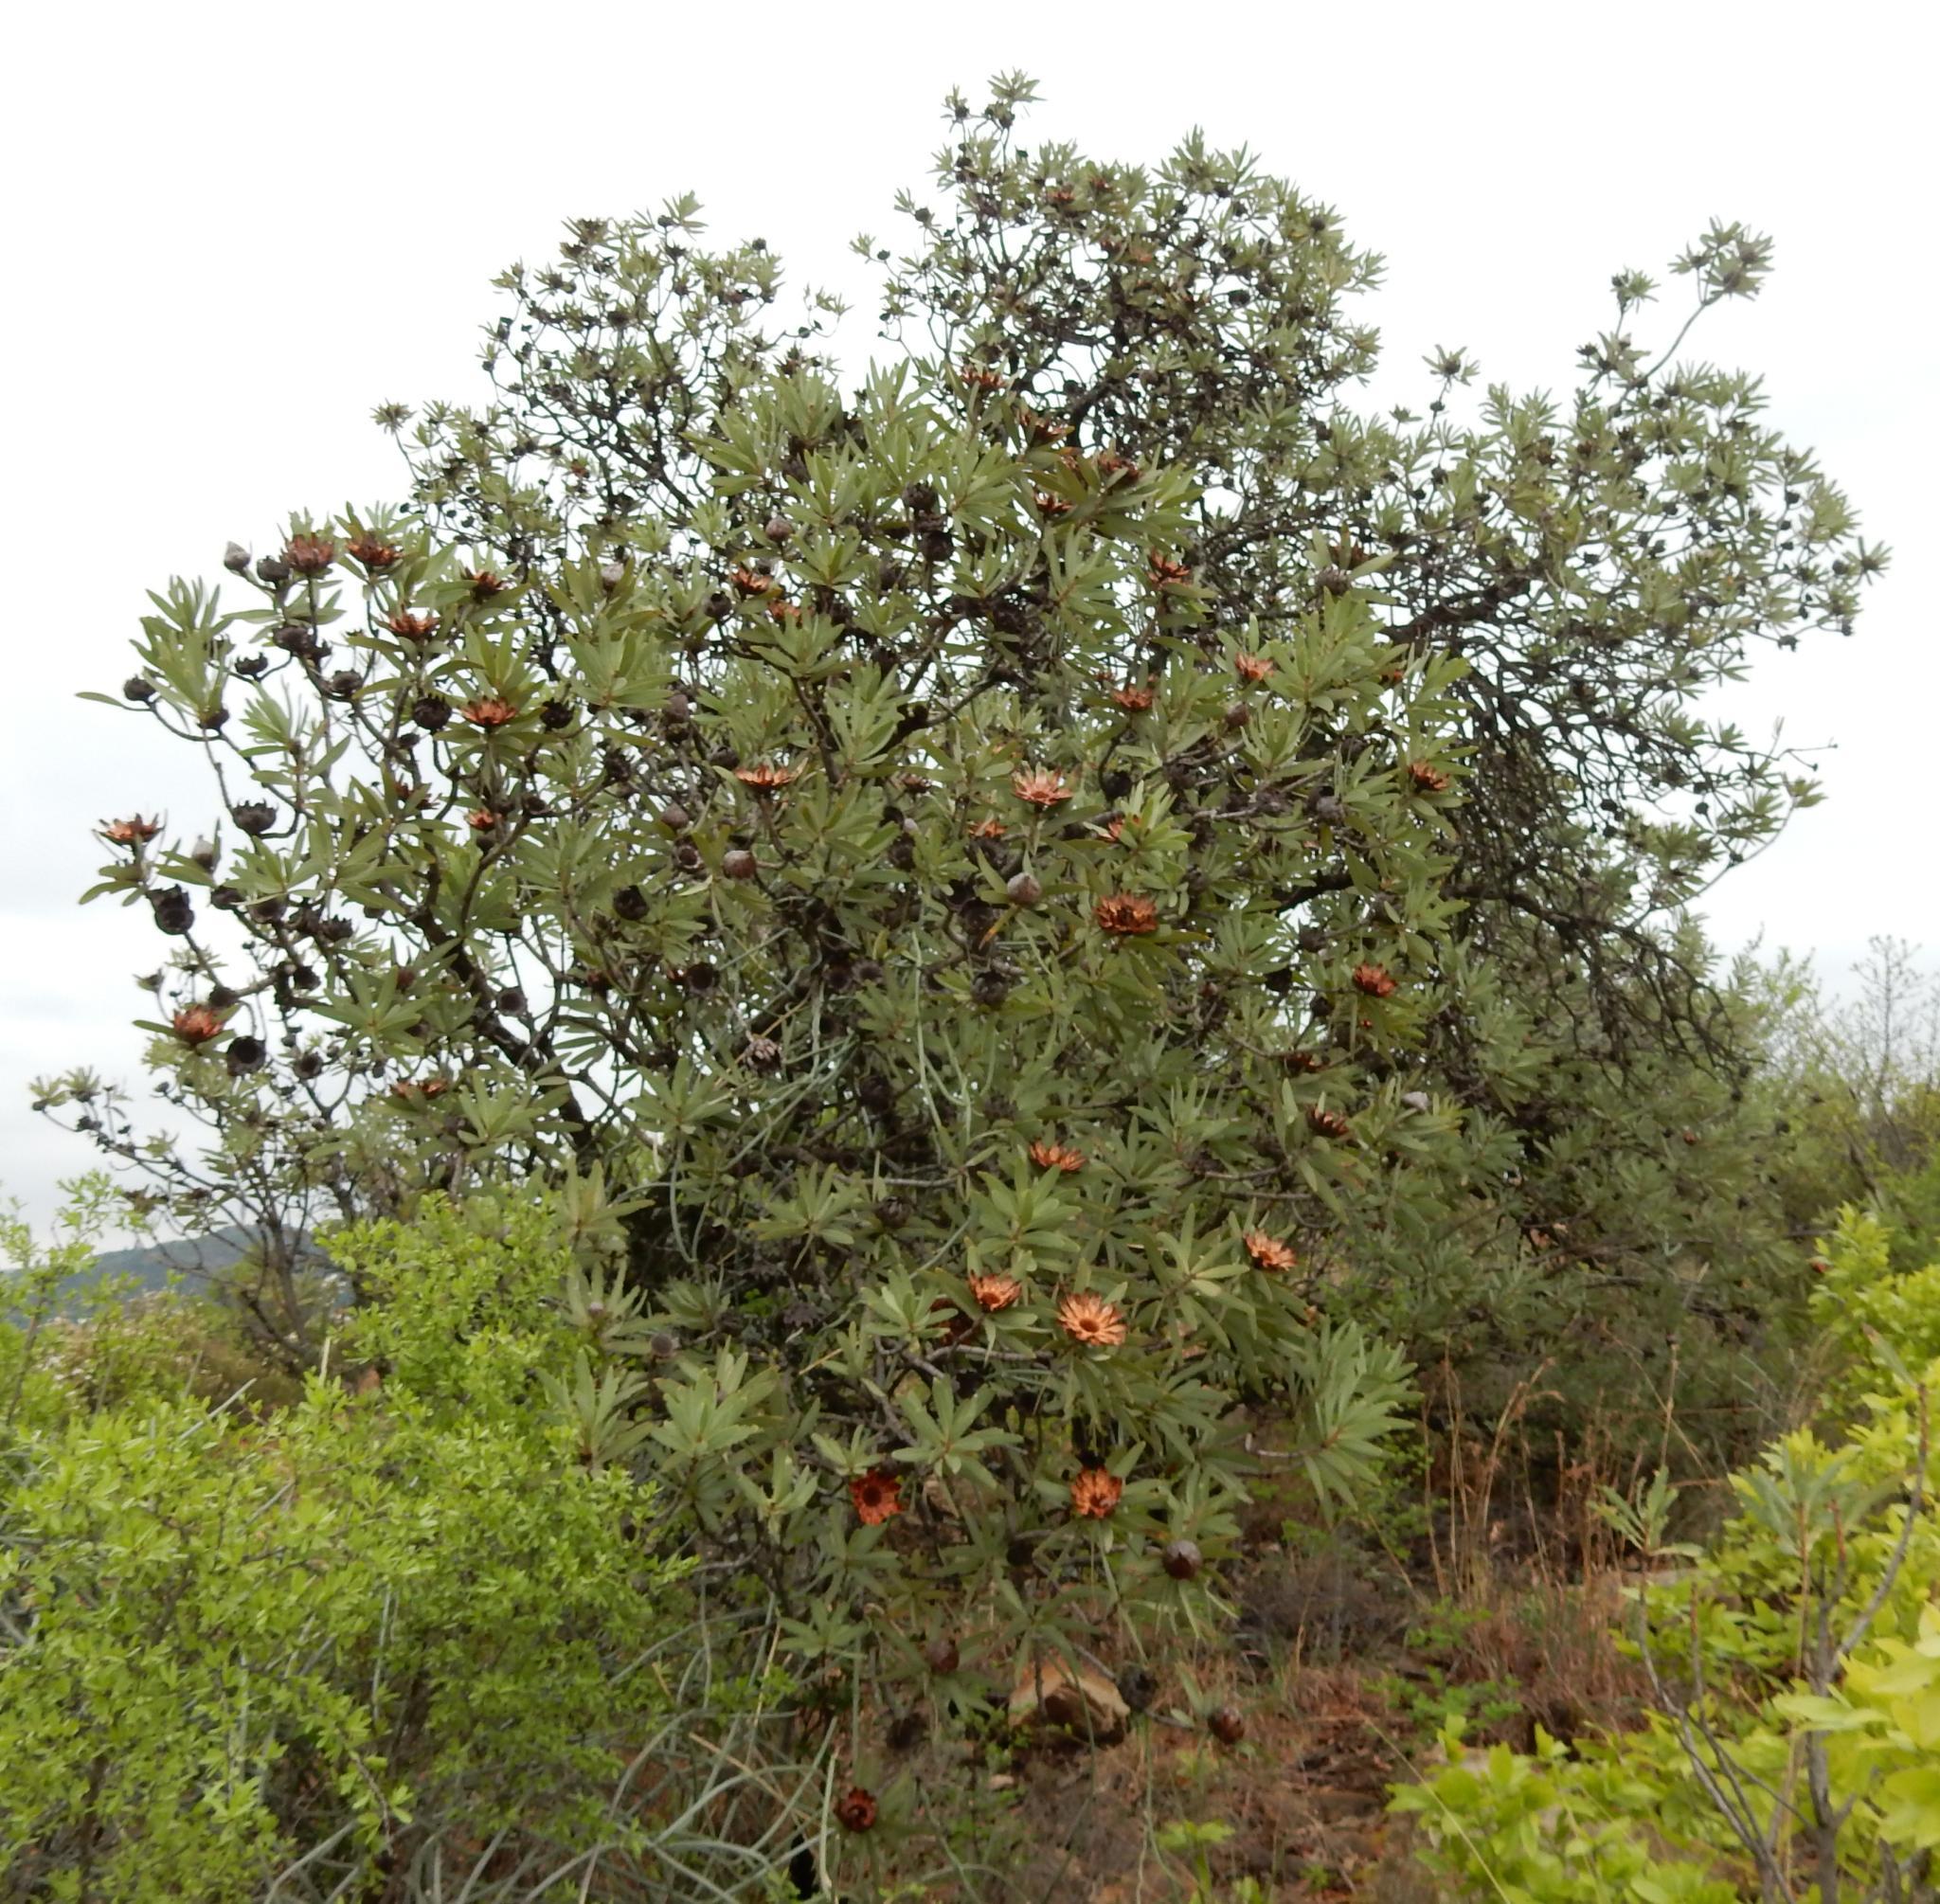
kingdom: Plantae
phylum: Tracheophyta
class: Magnoliopsida
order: Proteales
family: Proteaceae
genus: Protea
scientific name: Protea caffra
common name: Common sugarbush
